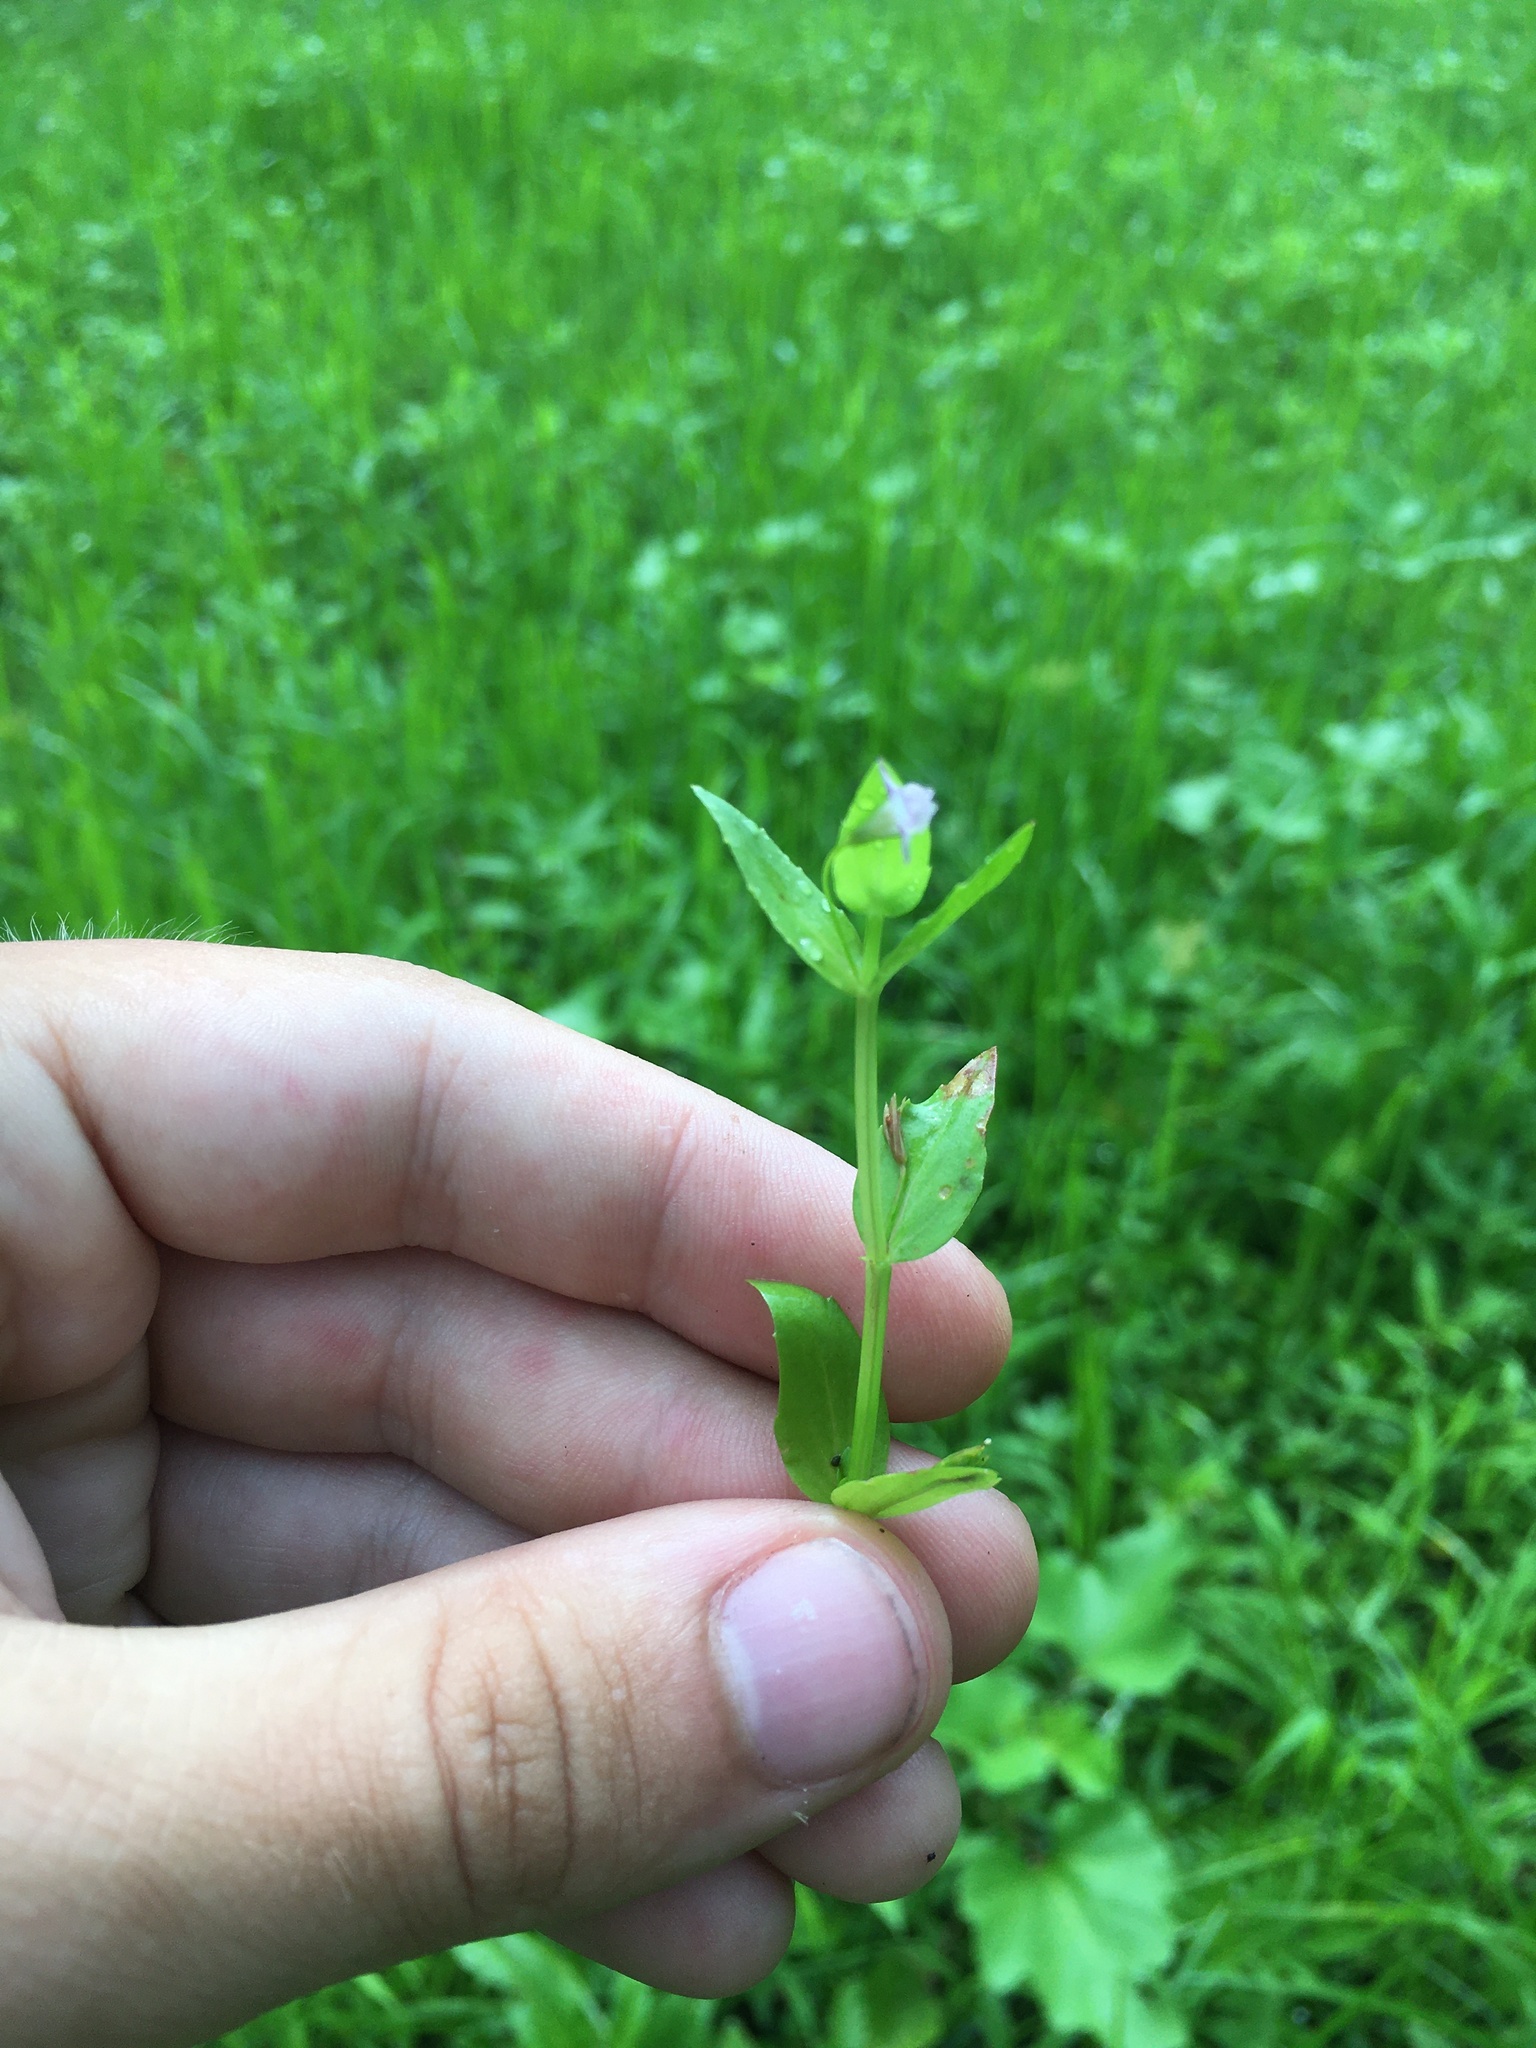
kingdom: Plantae
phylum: Tracheophyta
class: Magnoliopsida
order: Lamiales
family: Linderniaceae
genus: Lindernia
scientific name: Lindernia dubia
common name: Annual false pimpernel
